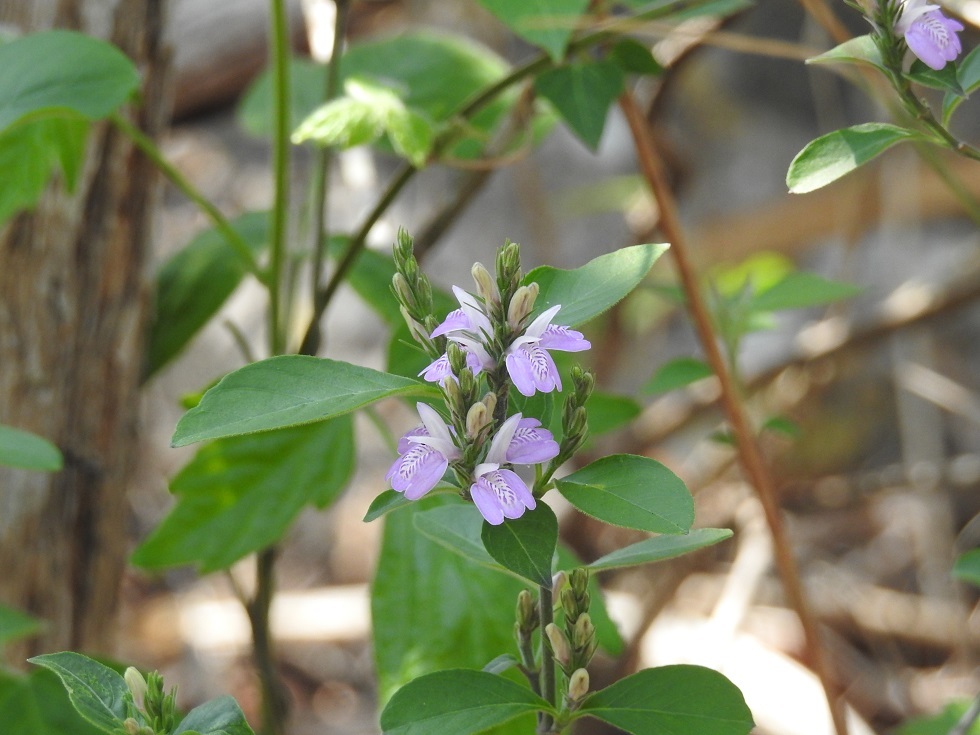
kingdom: Plantae
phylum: Tracheophyta
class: Magnoliopsida
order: Lamiales
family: Acanthaceae
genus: Dianthera
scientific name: Dianthera breviflora
